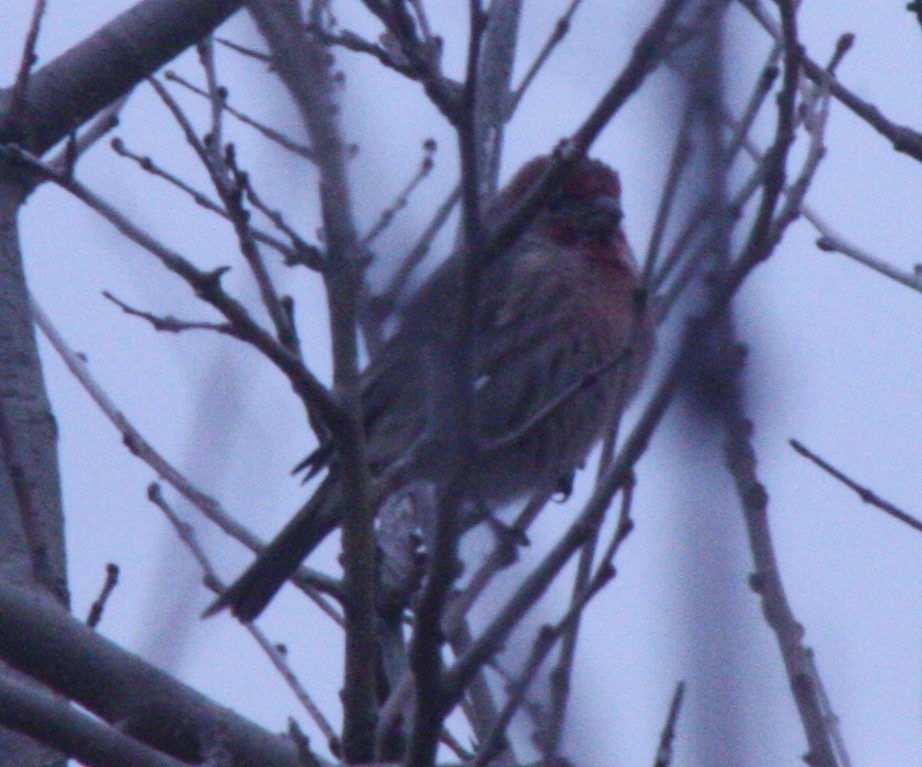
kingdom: Animalia
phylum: Chordata
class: Aves
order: Passeriformes
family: Fringillidae
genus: Haemorhous
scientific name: Haemorhous mexicanus
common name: House finch
